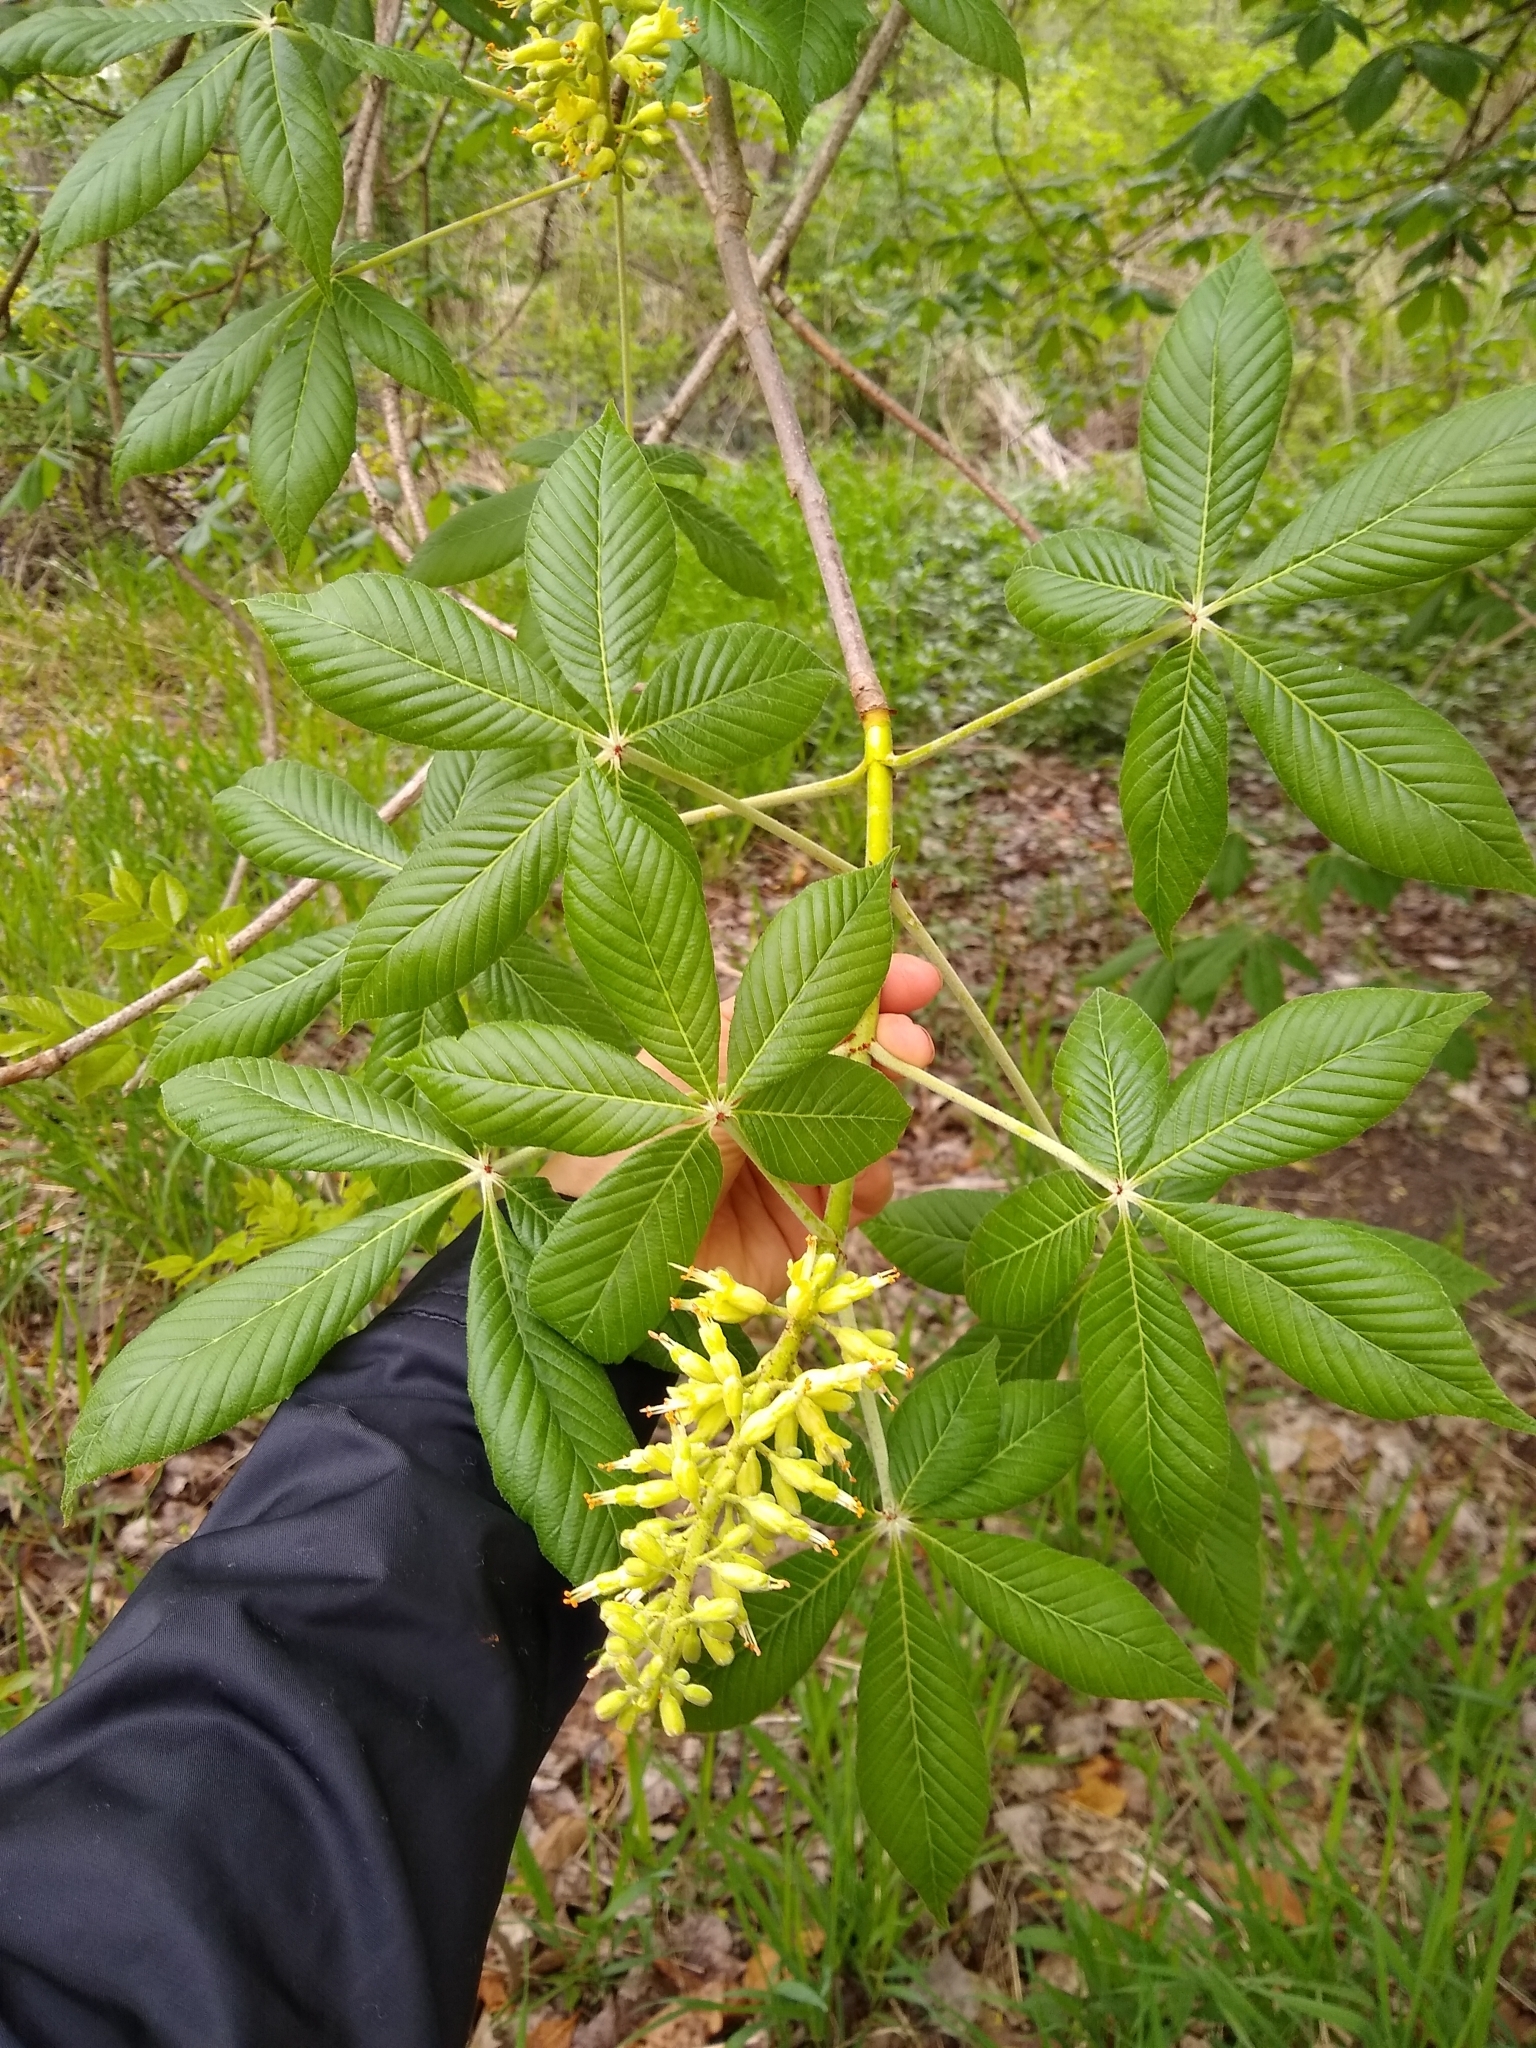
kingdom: Plantae
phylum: Tracheophyta
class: Magnoliopsida
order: Sapindales
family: Sapindaceae
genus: Aesculus
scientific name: Aesculus glabra
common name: Ohio buckeye
